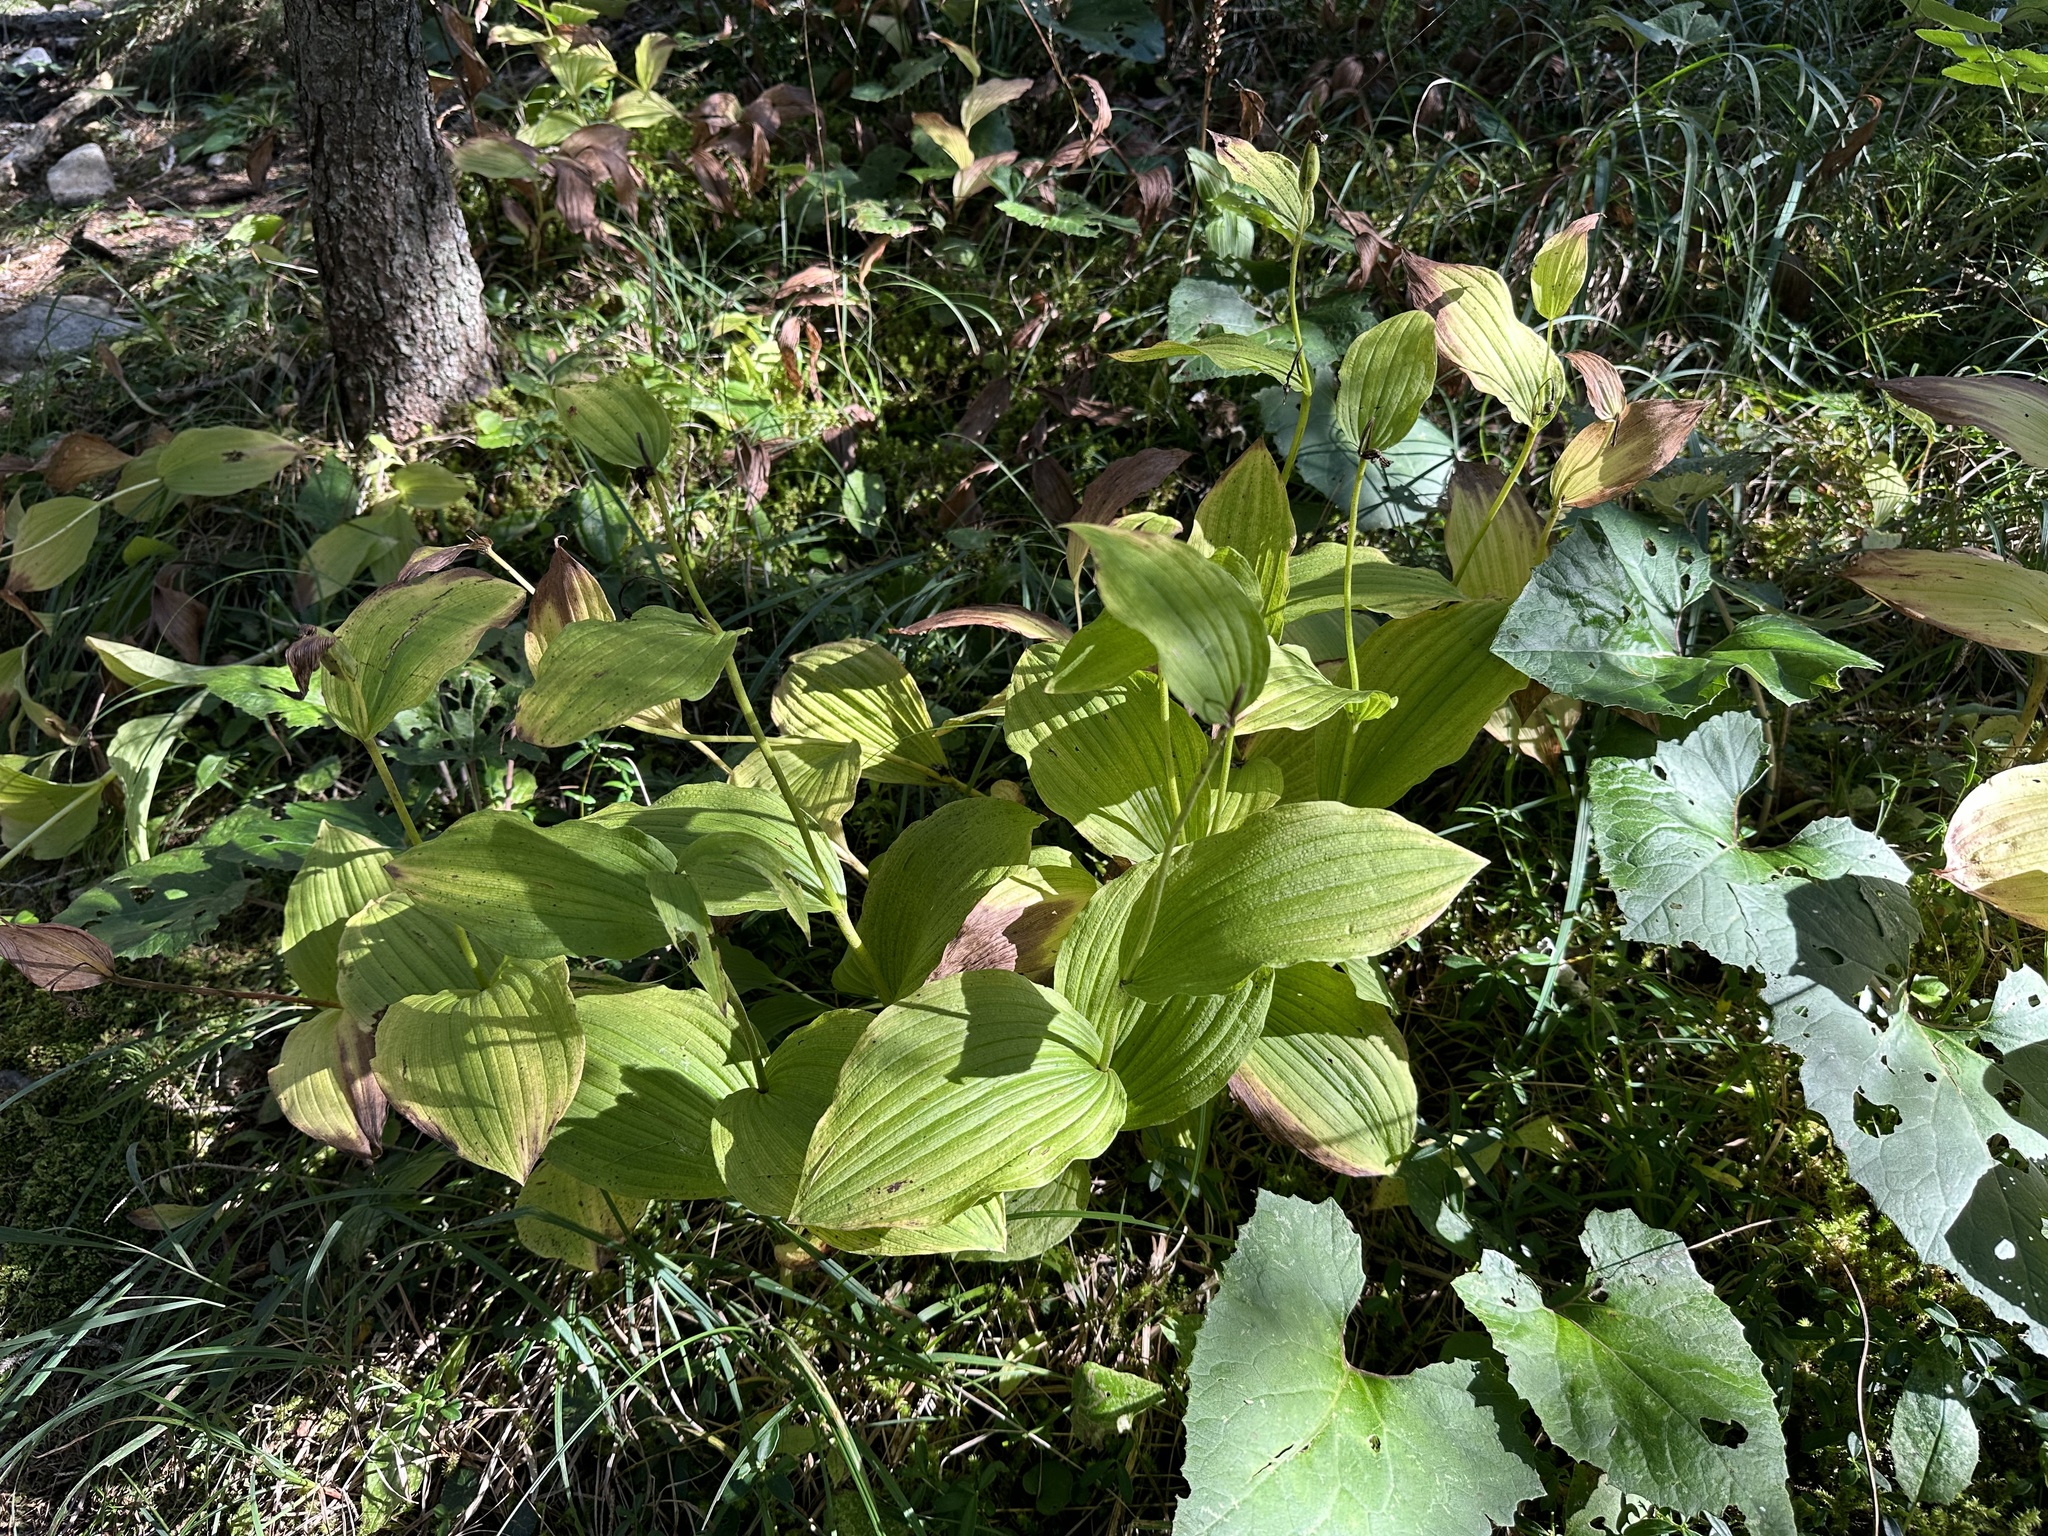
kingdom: Plantae
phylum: Tracheophyta
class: Liliopsida
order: Asparagales
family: Orchidaceae
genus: Cypripedium
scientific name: Cypripedium calceolus
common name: Lady's-slipper
